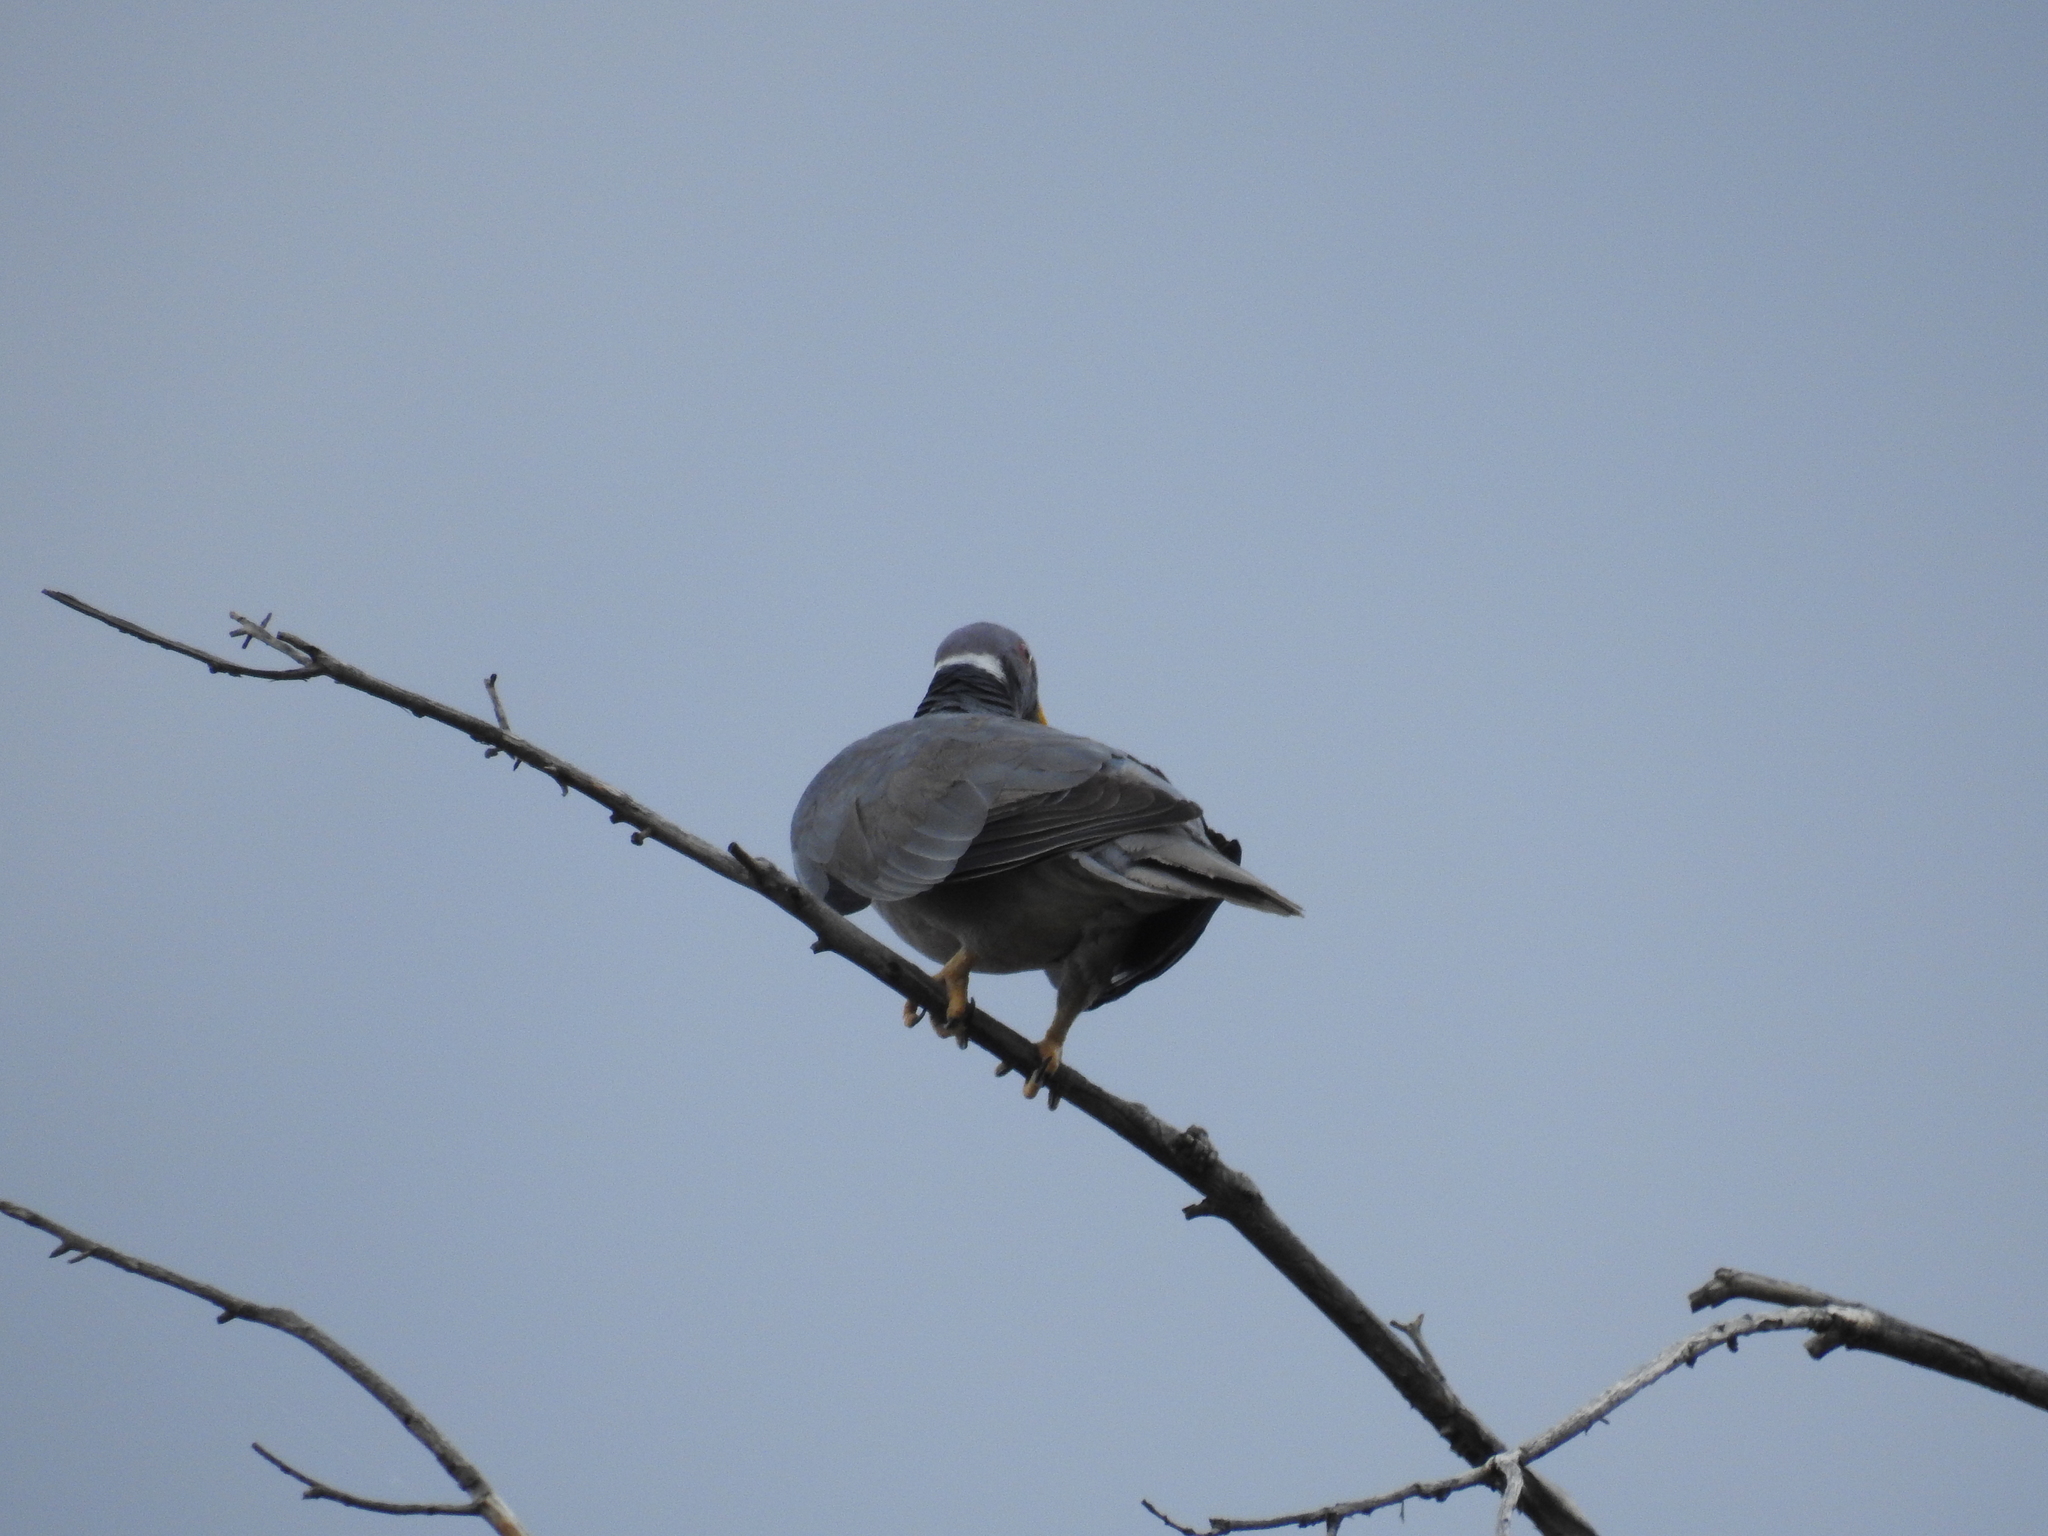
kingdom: Animalia
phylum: Chordata
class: Aves
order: Columbiformes
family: Columbidae
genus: Patagioenas
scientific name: Patagioenas fasciata
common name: Band-tailed pigeon
